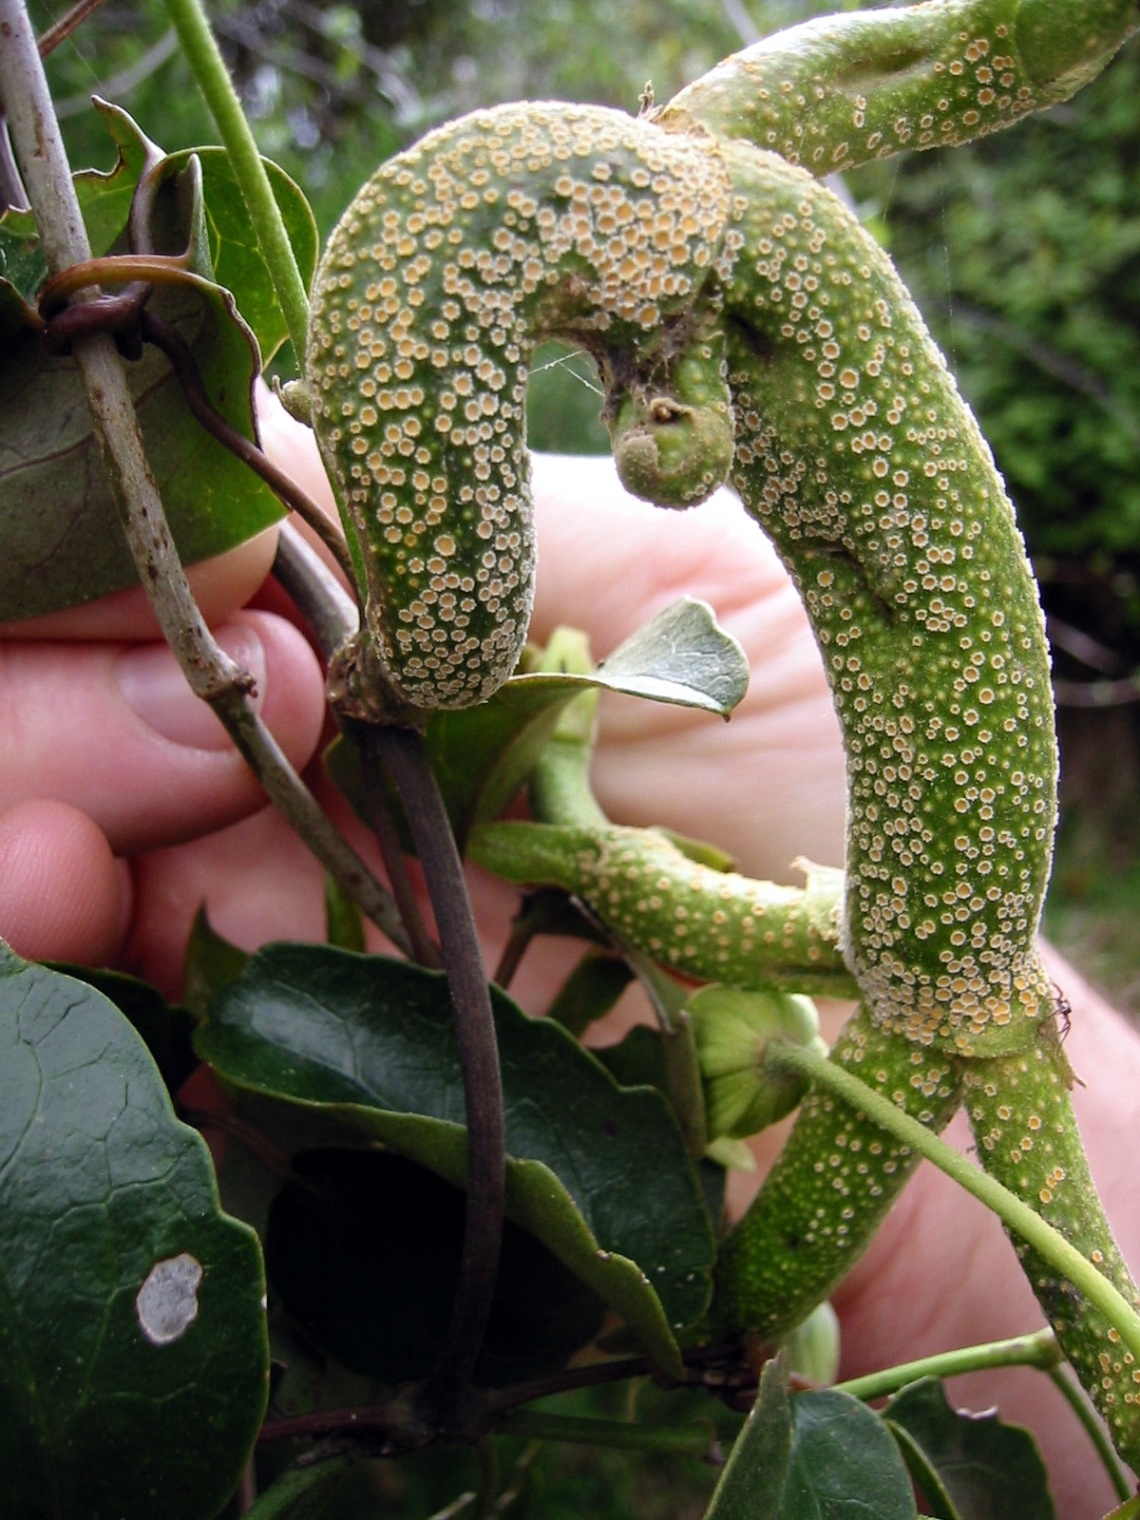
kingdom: Fungi
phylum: Basidiomycota
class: Pucciniomycetes
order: Pucciniales
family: Pucciniaceae
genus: Puccinia
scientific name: Puccinia otagensis
